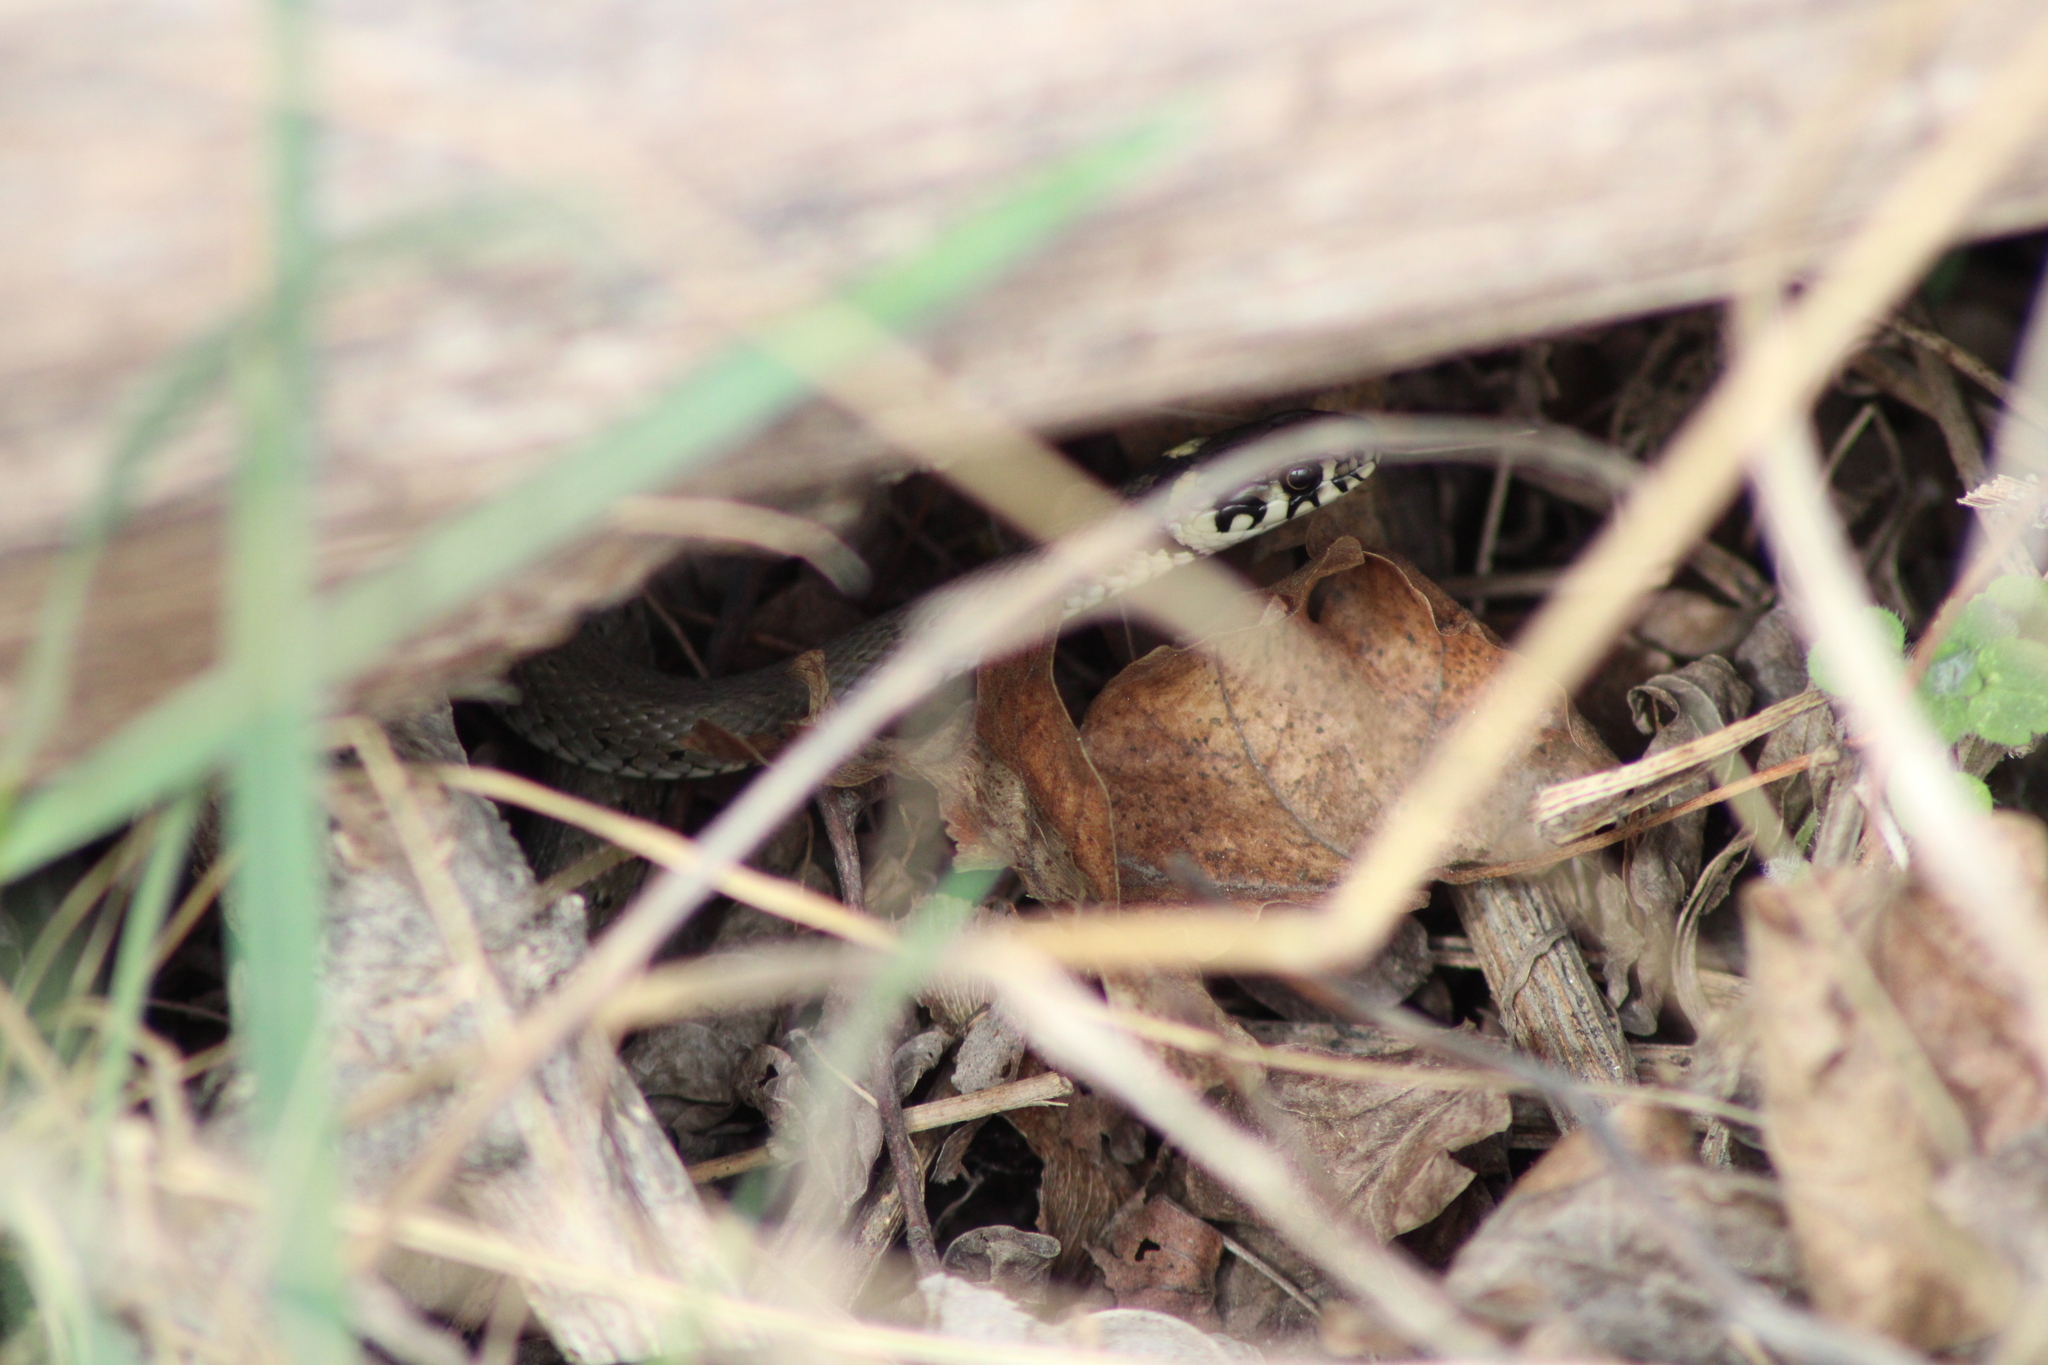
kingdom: Animalia
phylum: Chordata
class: Squamata
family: Colubridae
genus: Natrix
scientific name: Natrix natrix
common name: Grass snake
